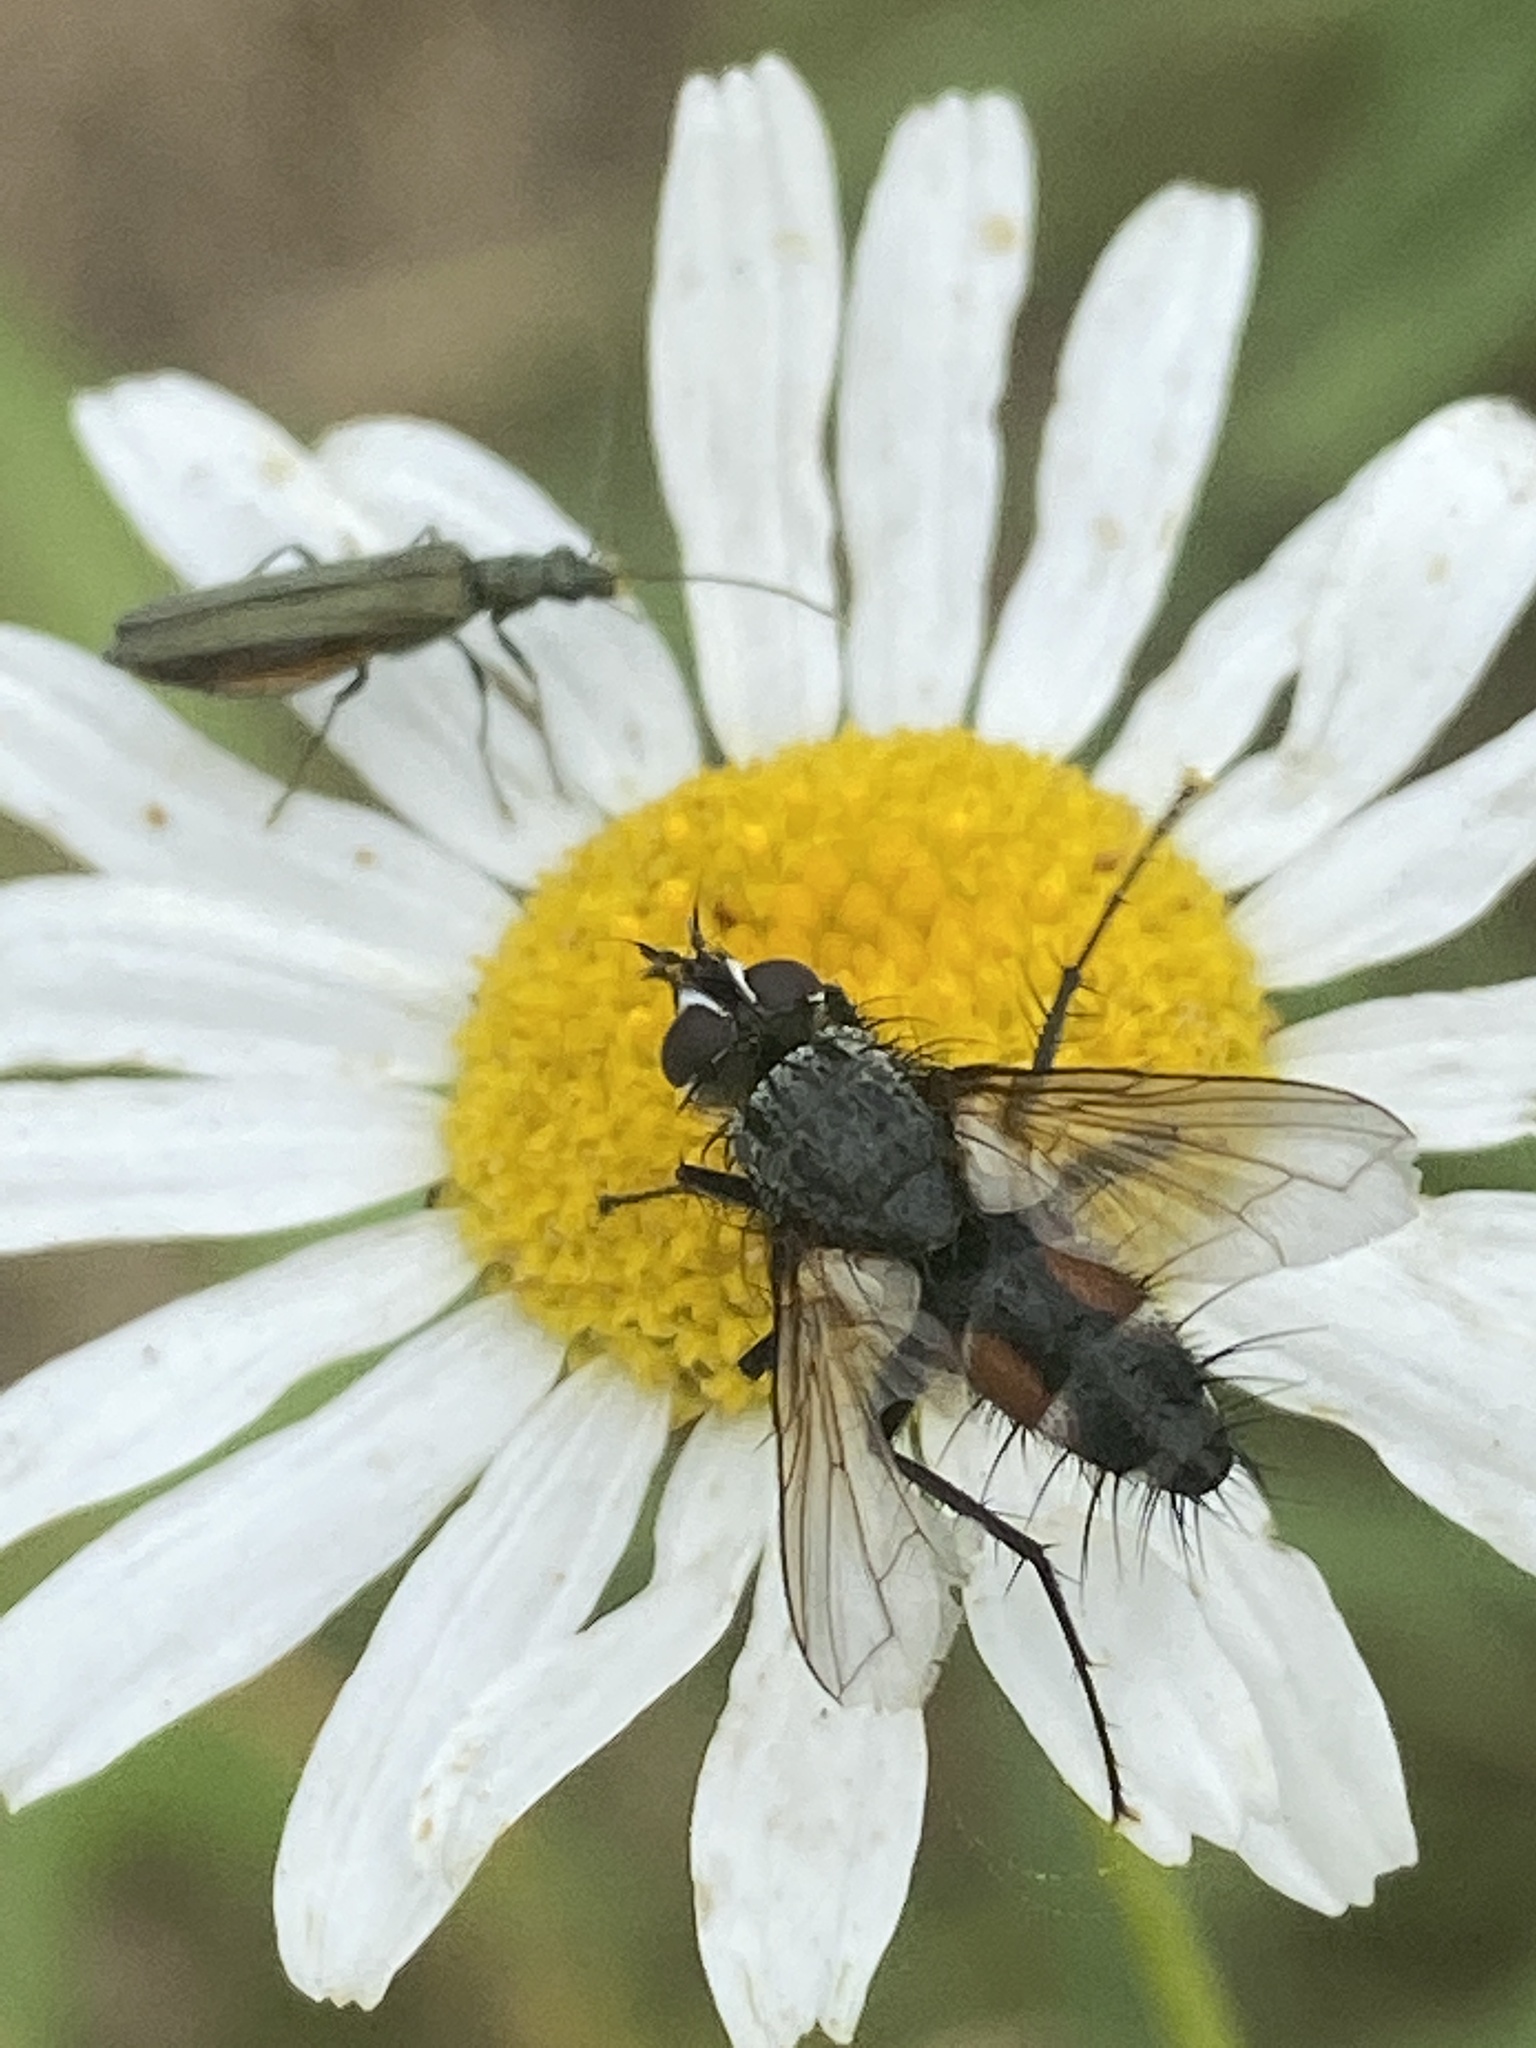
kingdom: Animalia
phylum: Arthropoda
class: Insecta
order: Diptera
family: Tachinidae
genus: Eriothrix
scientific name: Eriothrix rufomaculatus
